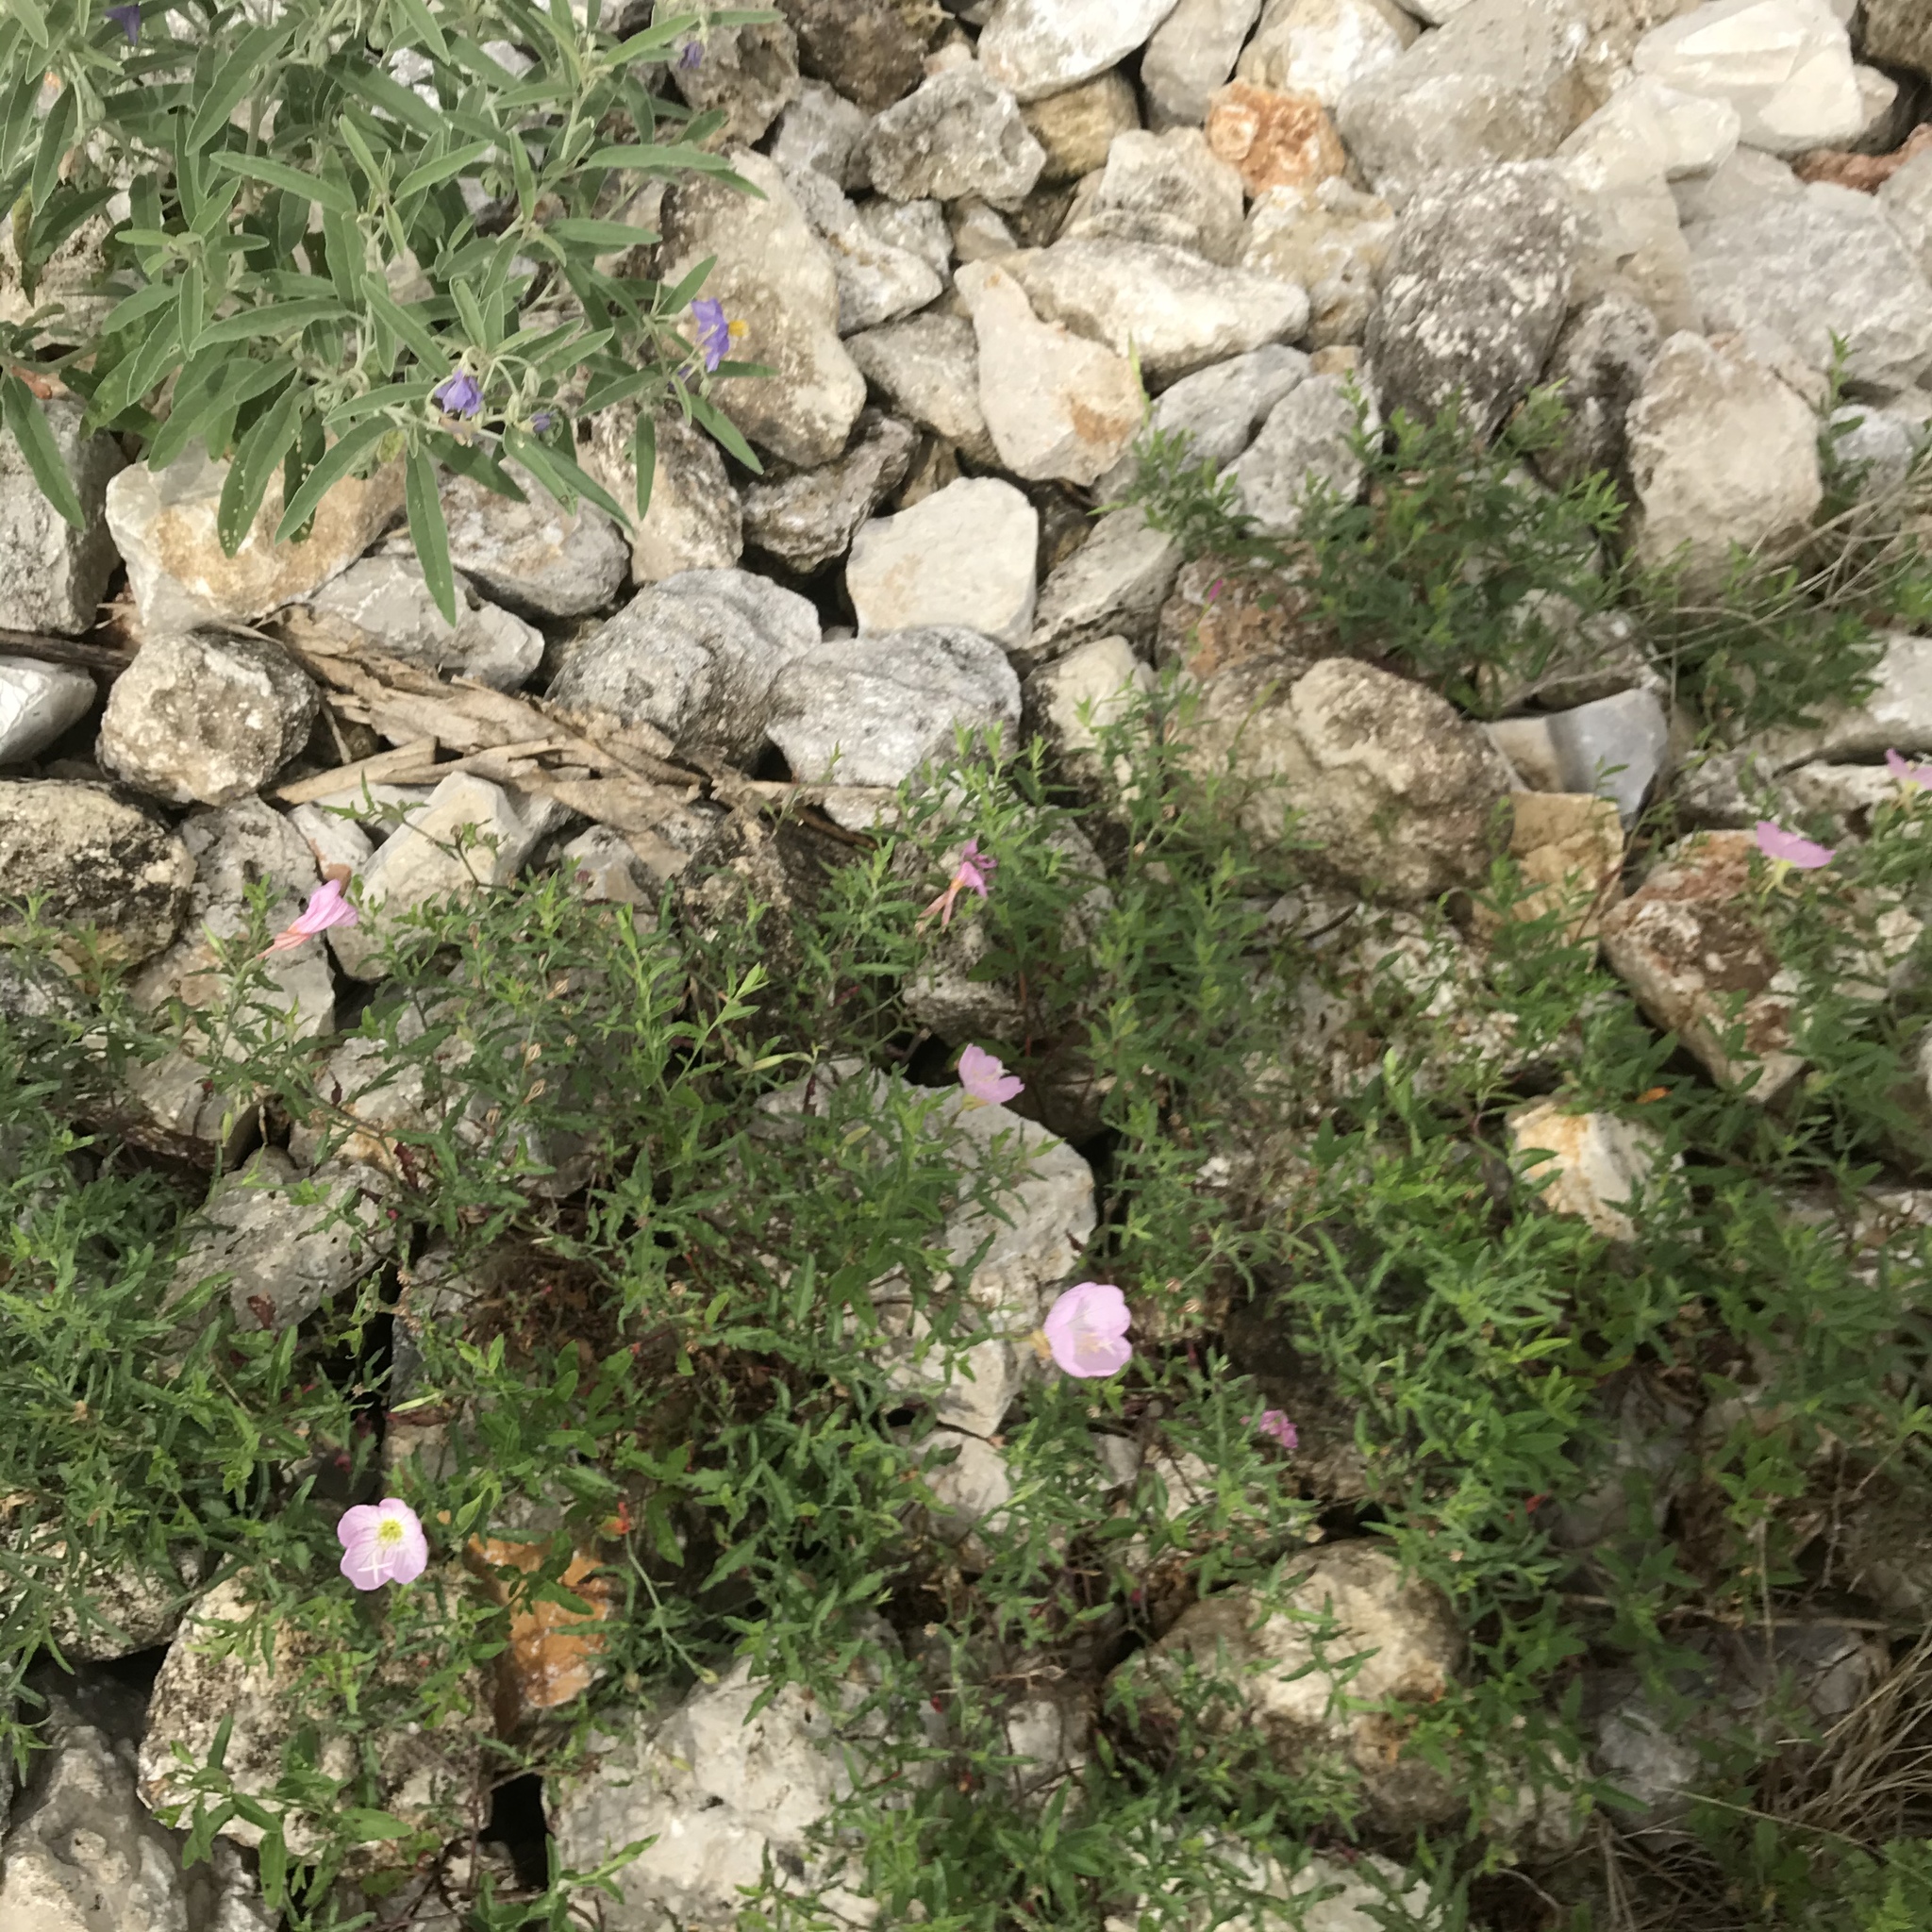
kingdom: Plantae
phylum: Tracheophyta
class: Magnoliopsida
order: Myrtales
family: Onagraceae
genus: Oenothera
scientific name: Oenothera speciosa
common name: White evening-primrose
